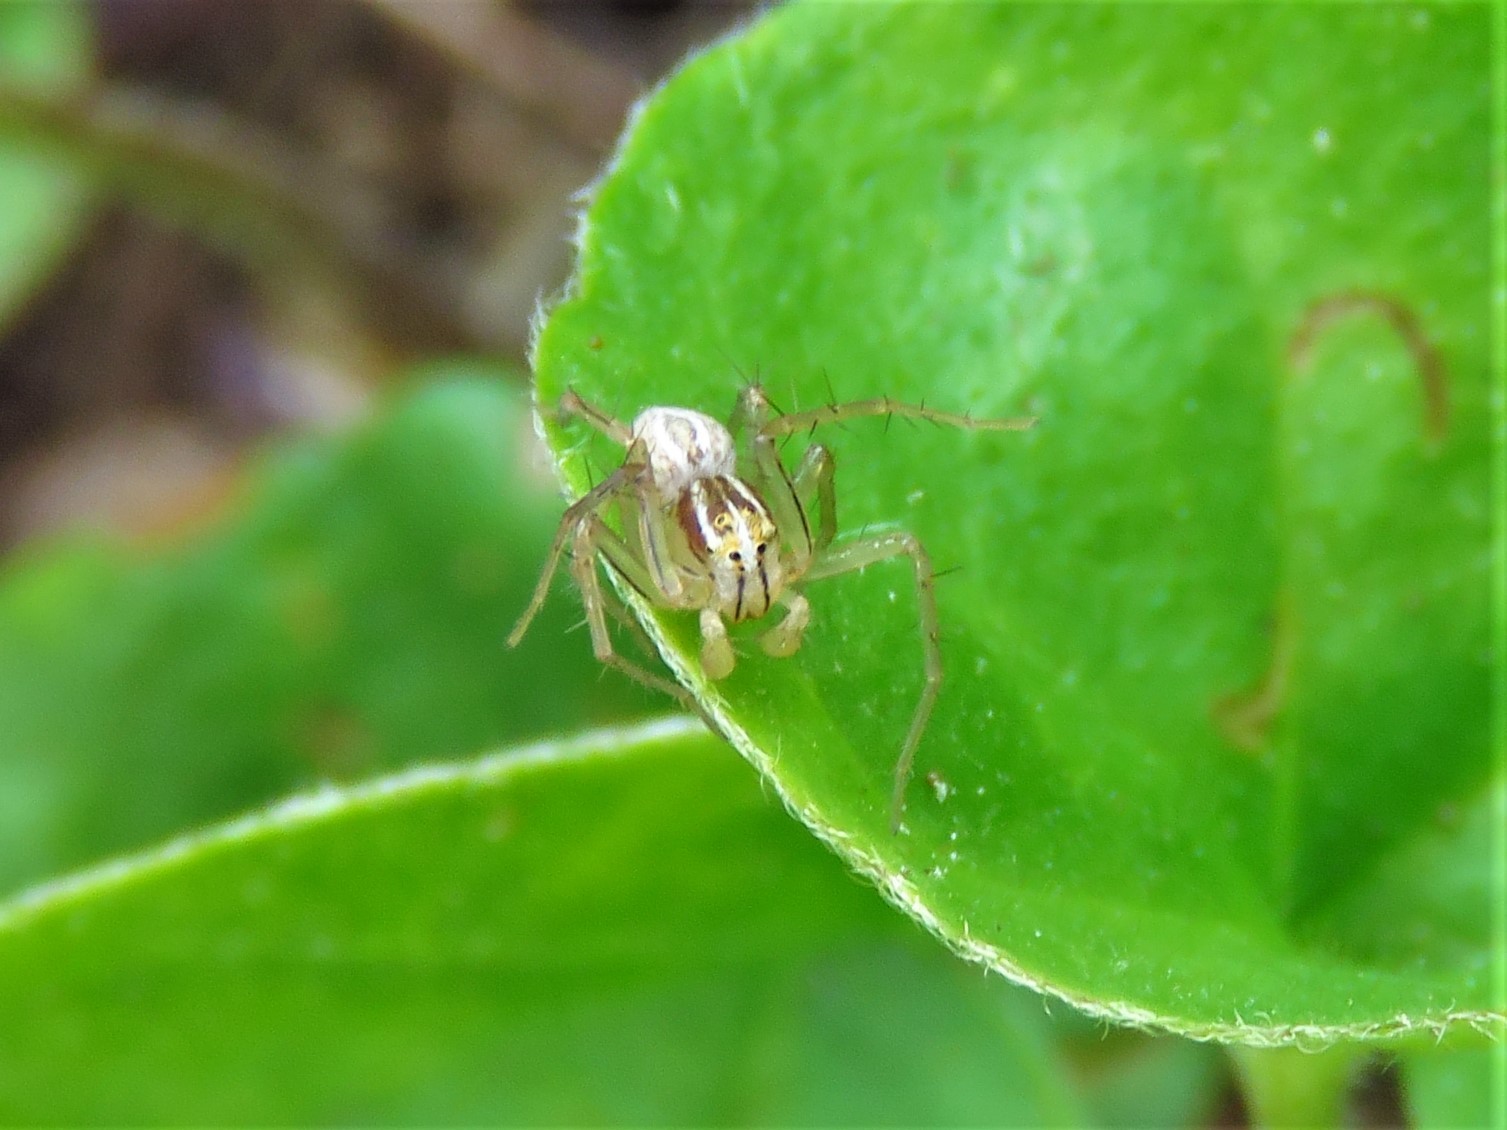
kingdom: Animalia
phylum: Arthropoda
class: Arachnida
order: Araneae
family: Oxyopidae
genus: Oxyopes
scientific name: Oxyopes salticus
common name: Lynx spiders
